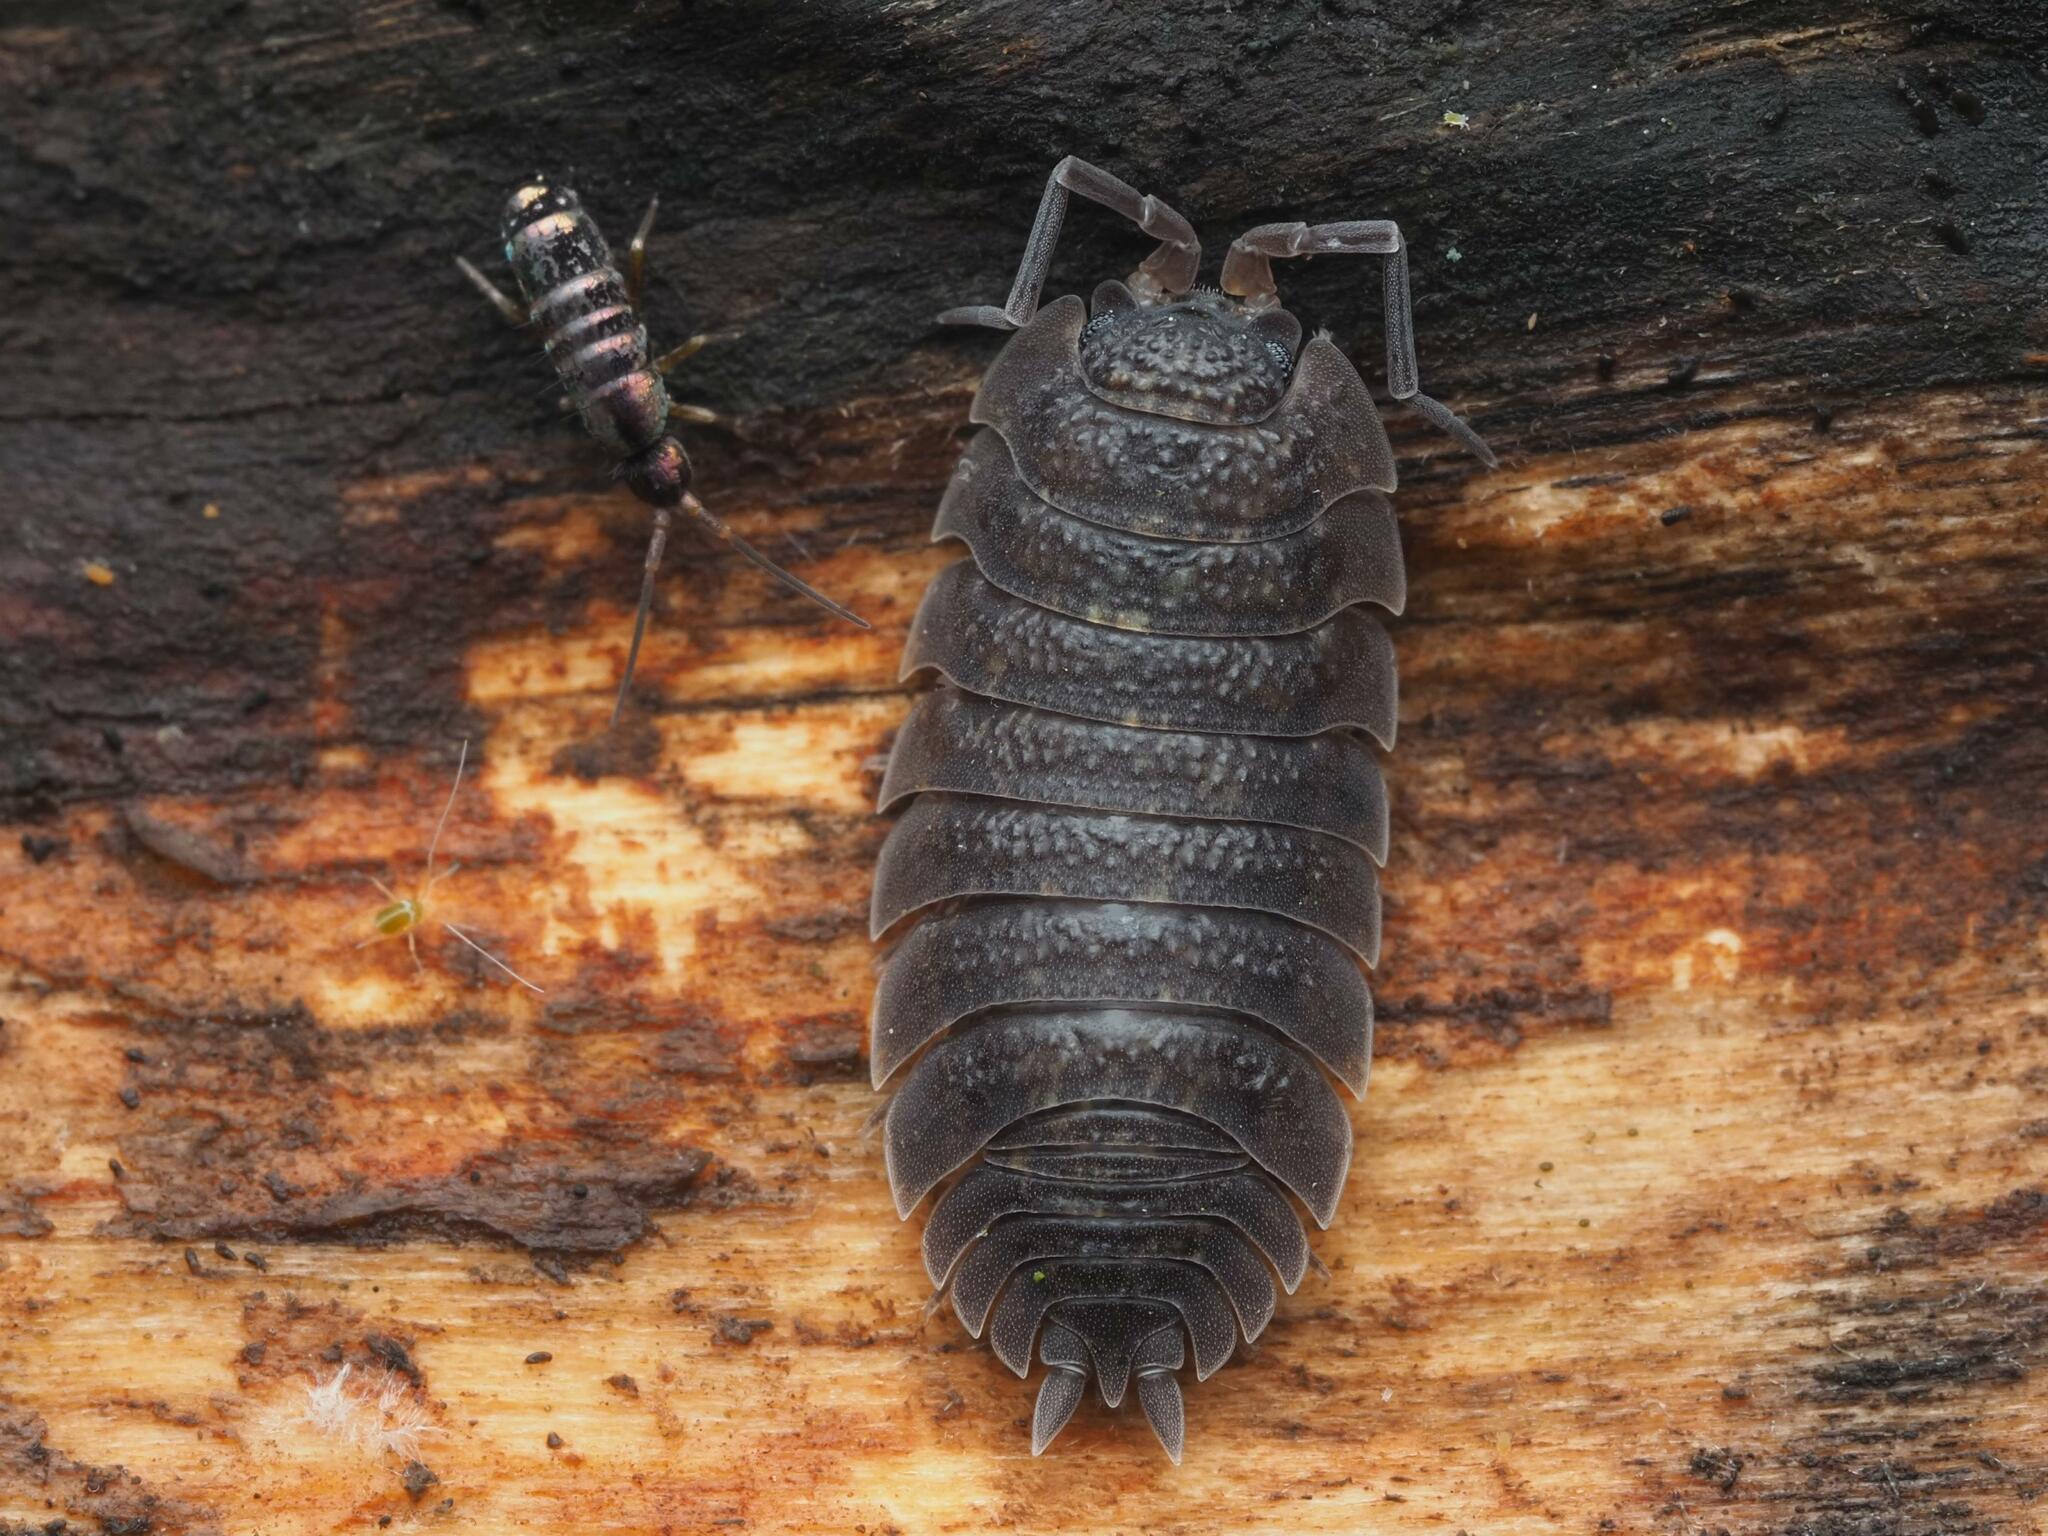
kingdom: Animalia
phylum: Arthropoda
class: Malacostraca
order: Isopoda
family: Porcellionidae
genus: Porcellio
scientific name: Porcellio scaber
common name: Common rough woodlouse
